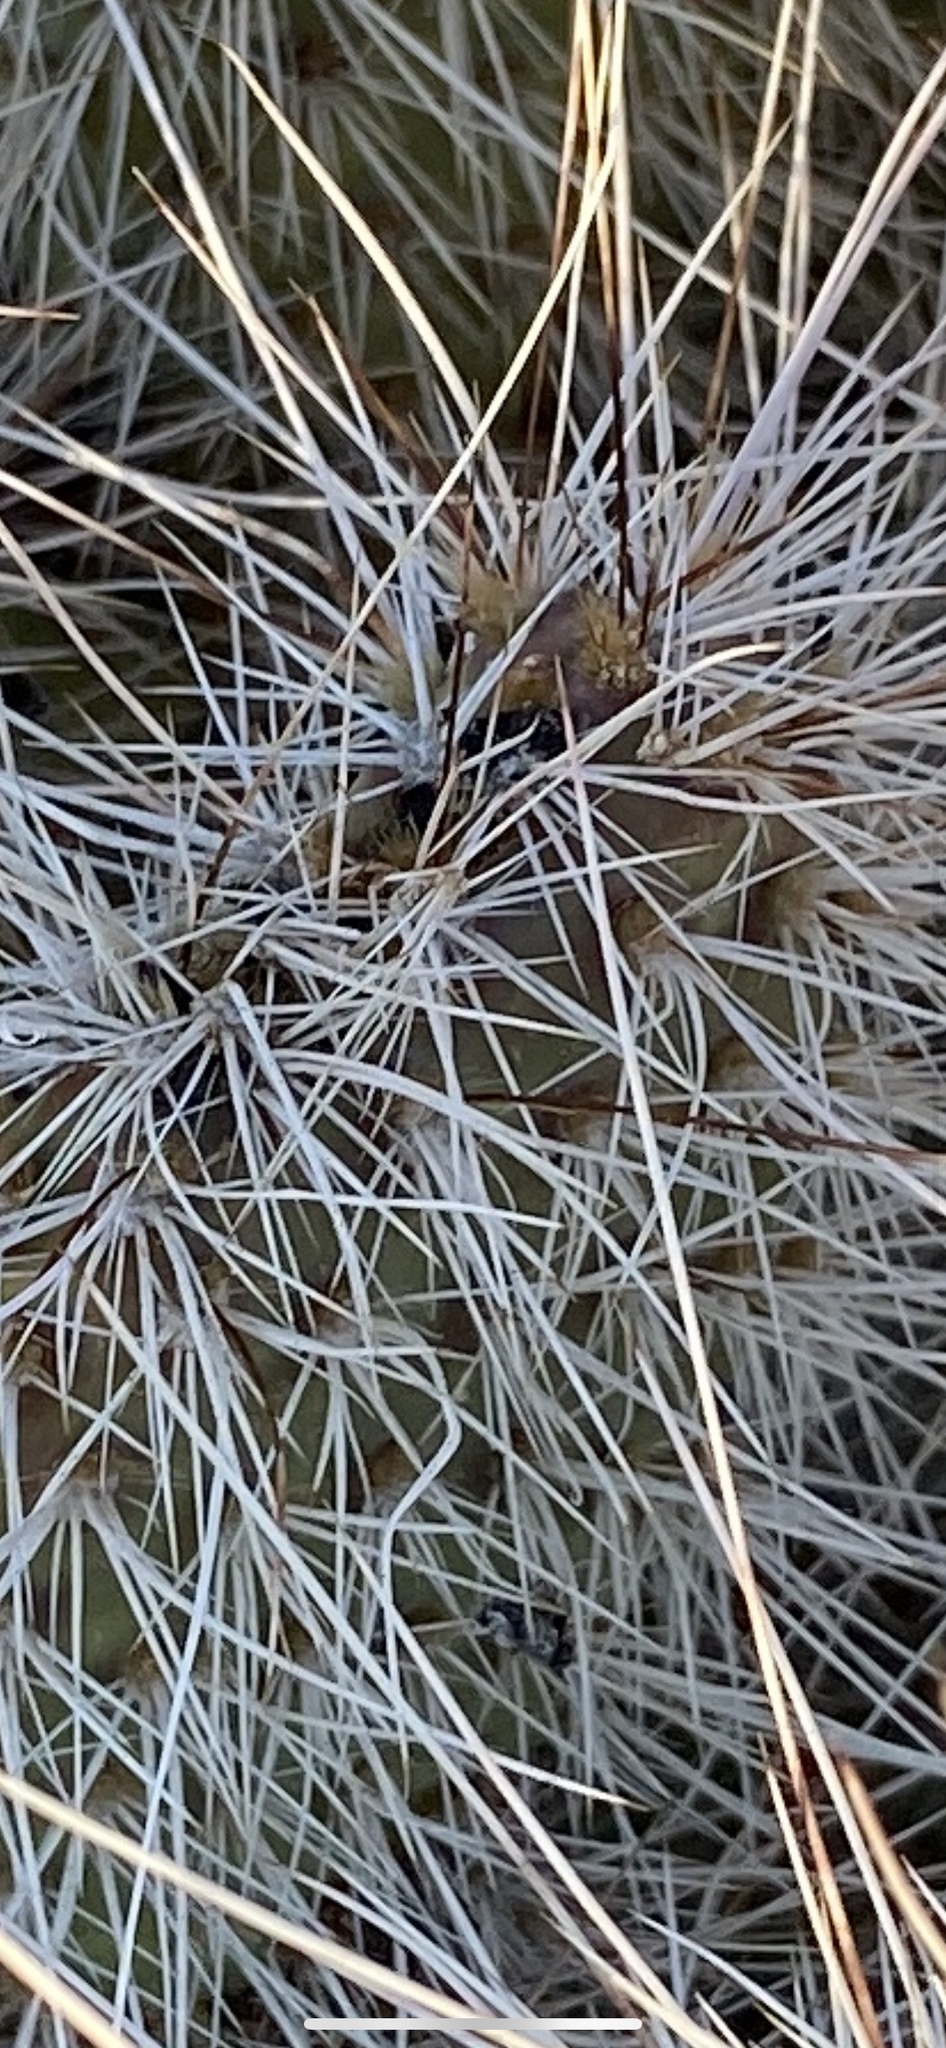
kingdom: Plantae
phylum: Tracheophyta
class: Magnoliopsida
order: Caryophyllales
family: Cactaceae
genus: Opuntia
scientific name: Opuntia polyacantha
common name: Plains prickly-pear
